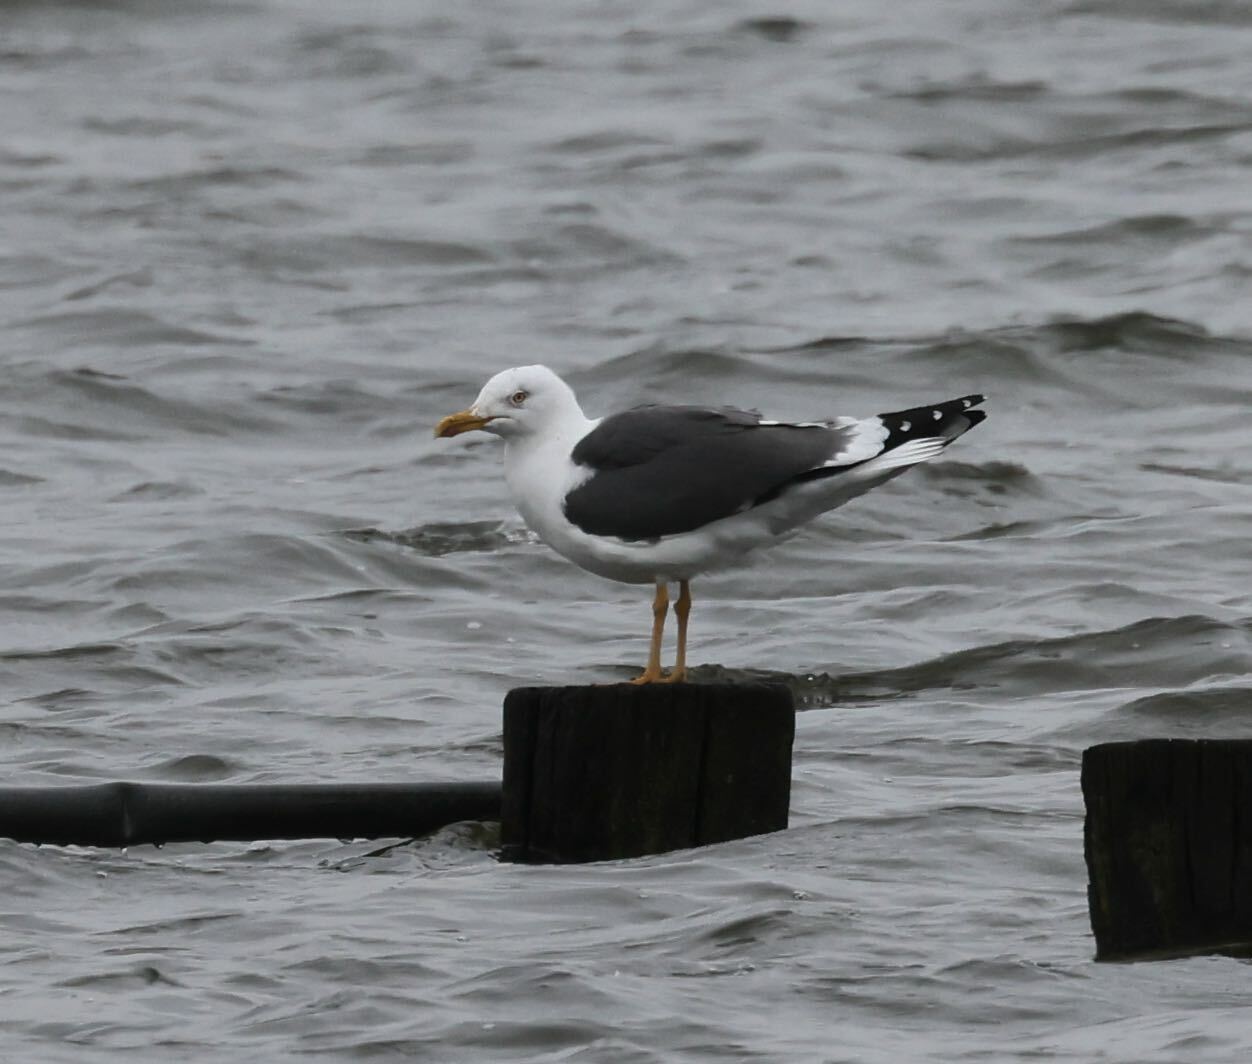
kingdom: Animalia
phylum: Chordata
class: Aves
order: Charadriiformes
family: Laridae
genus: Larus
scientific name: Larus fuscus
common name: Lesser black-backed gull
